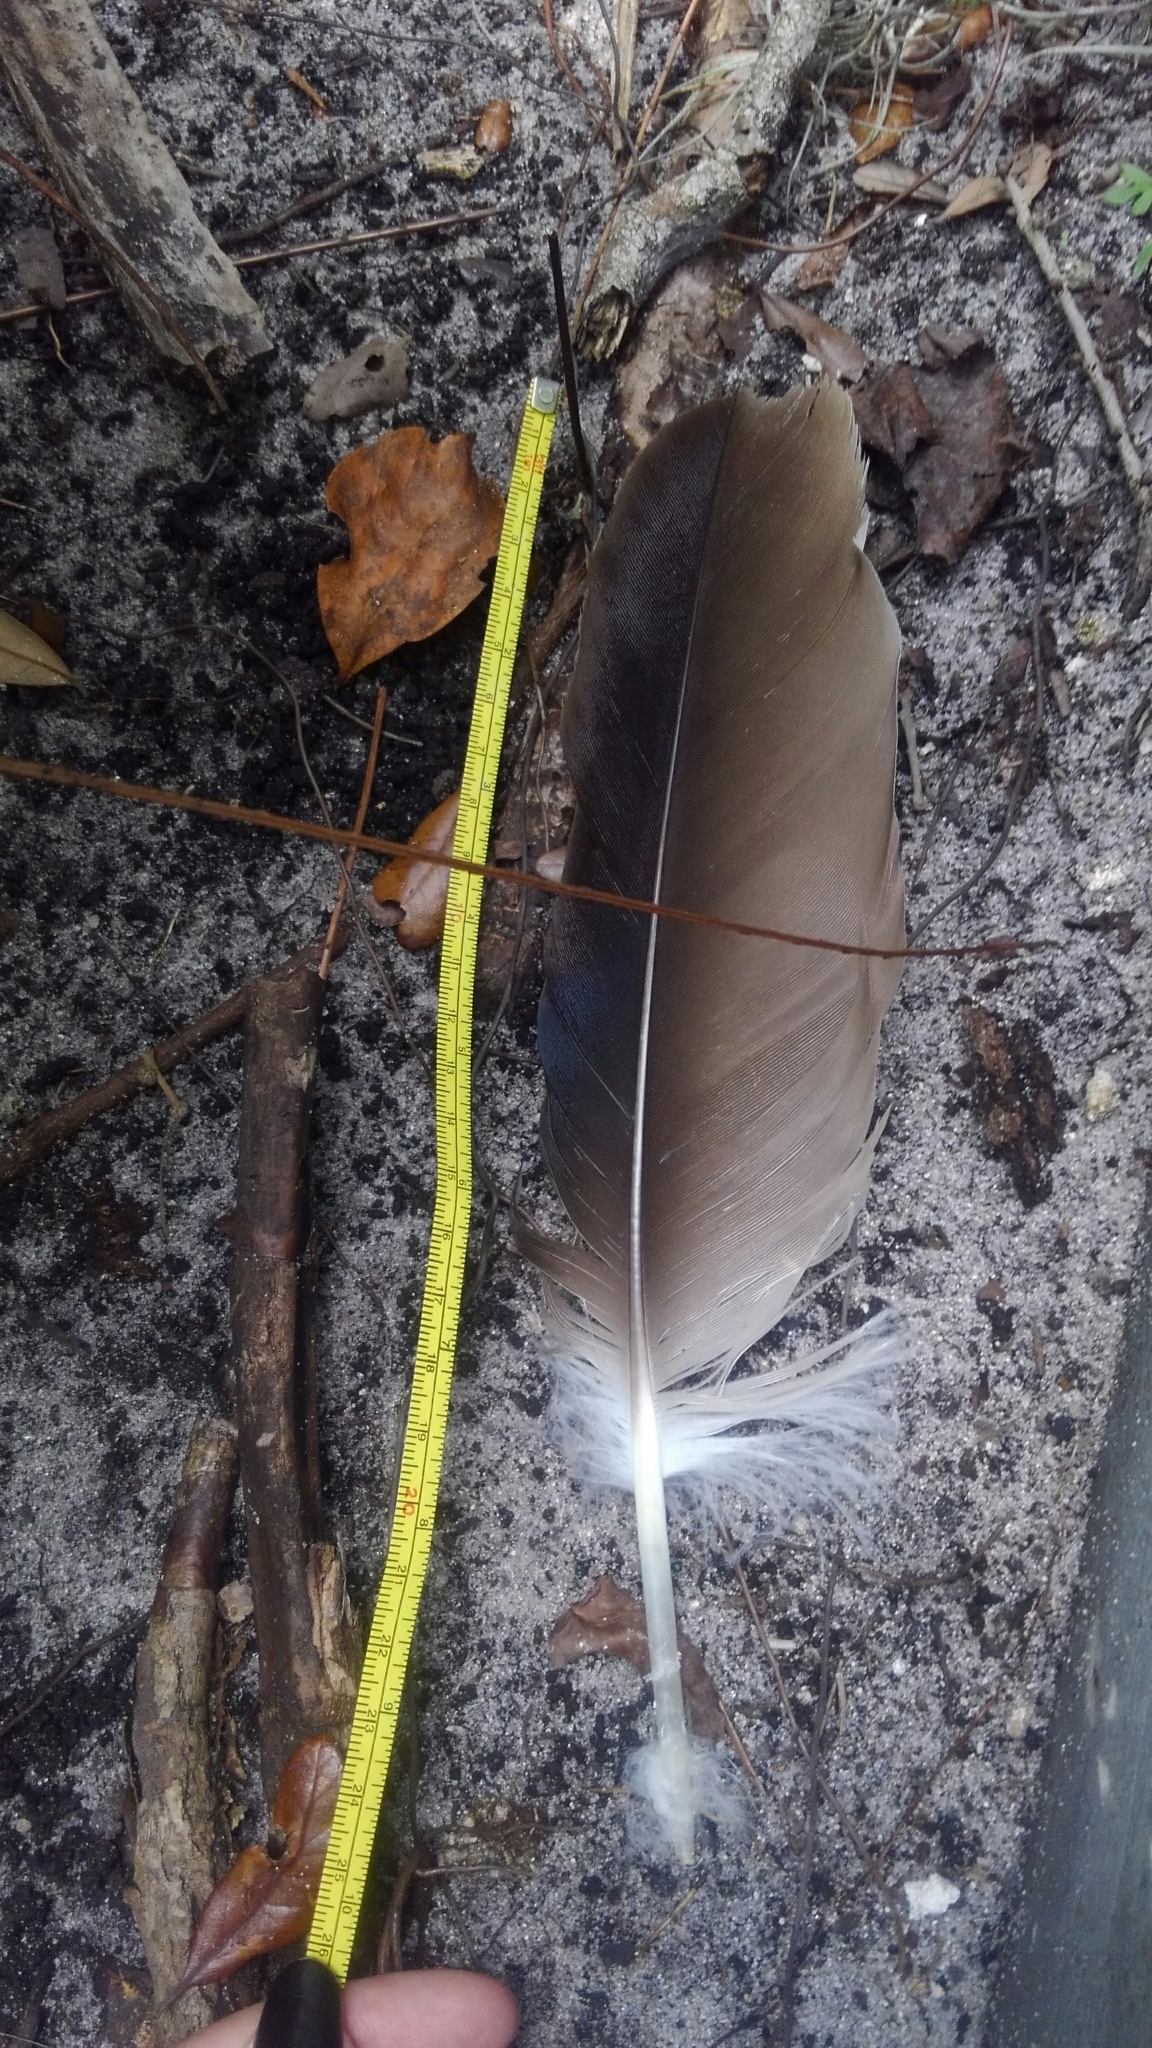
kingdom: Animalia
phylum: Chordata
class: Aves
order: Accipitriformes
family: Cathartidae
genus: Cathartes
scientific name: Cathartes aura
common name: Turkey vulture
